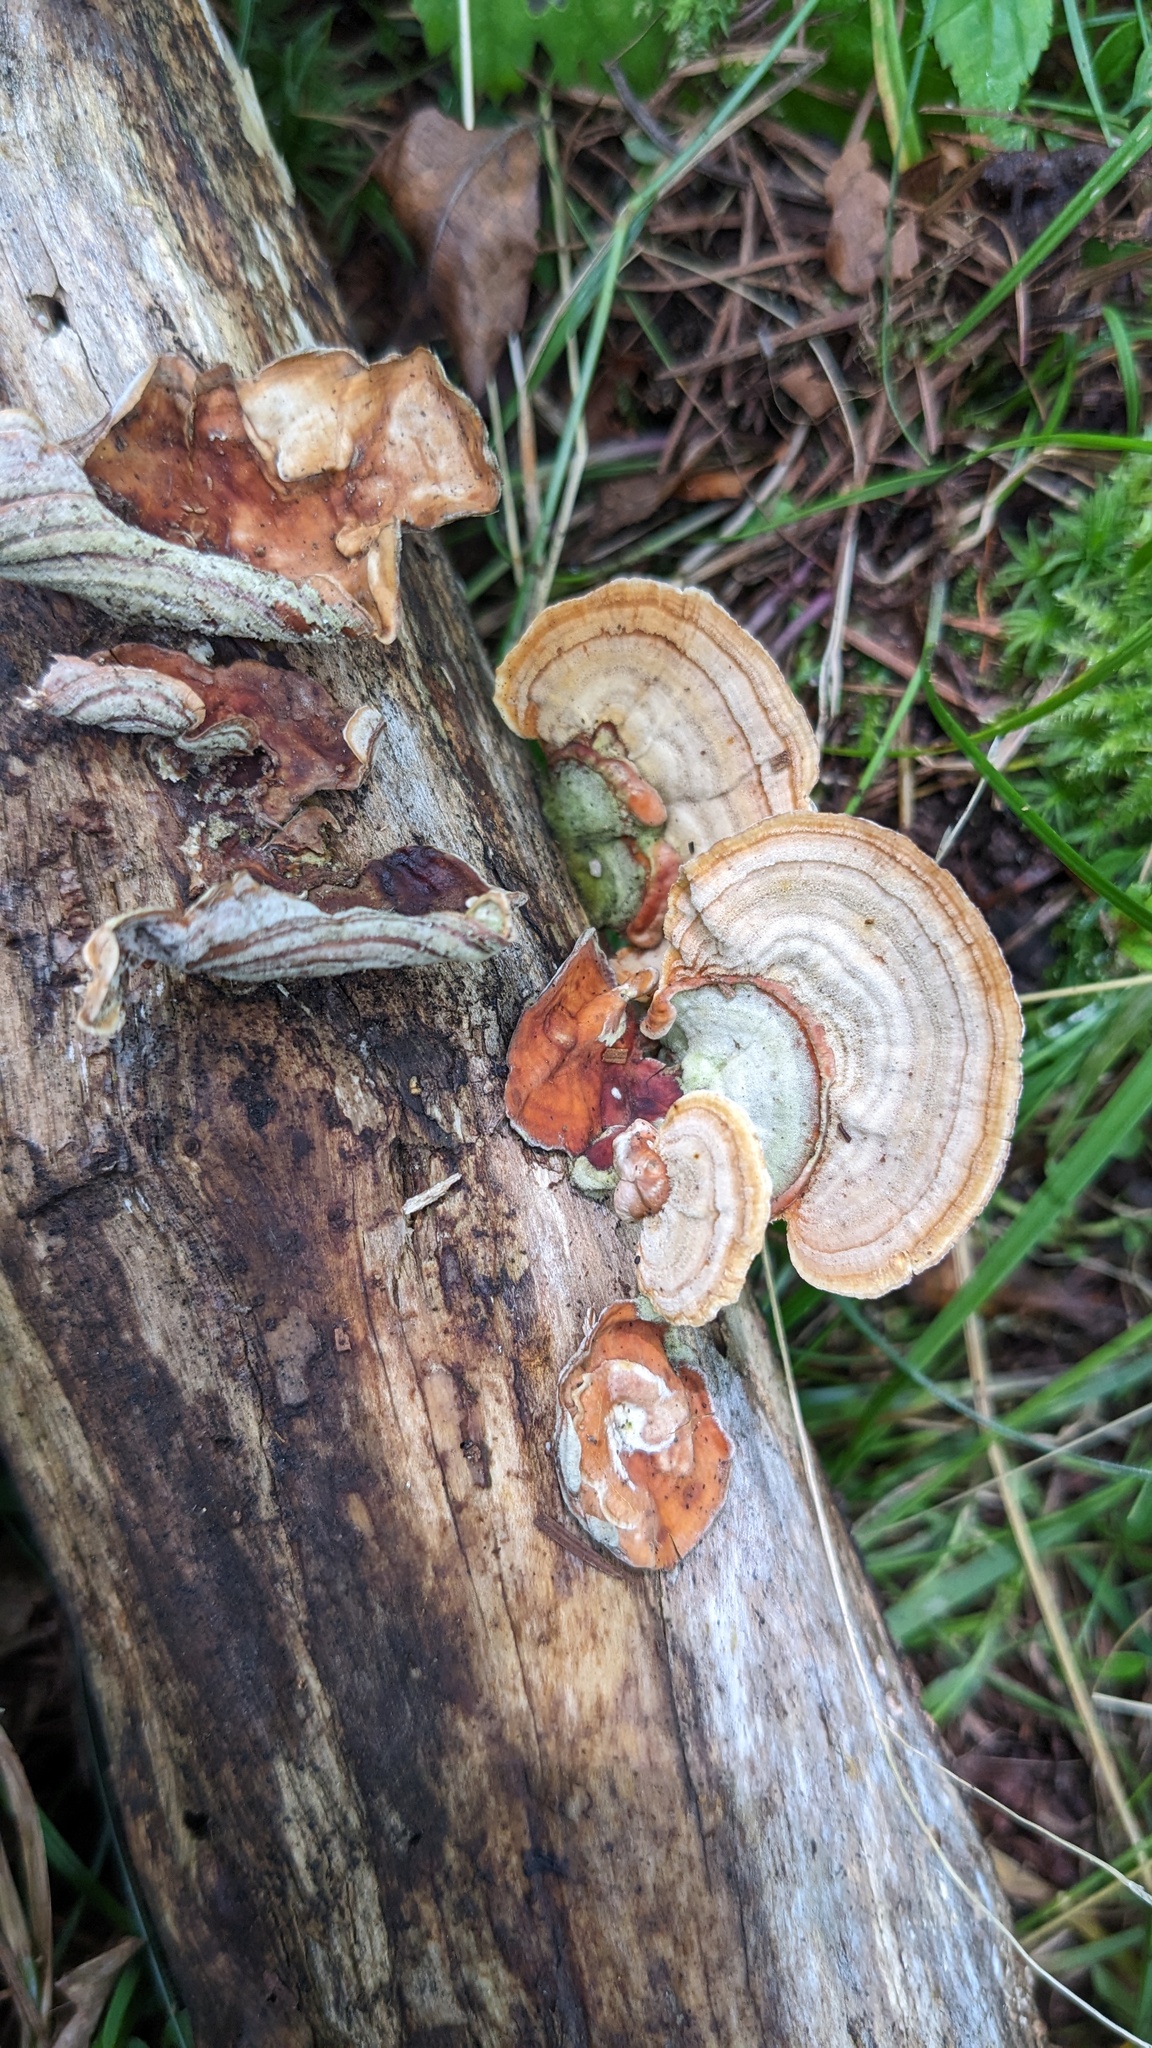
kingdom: Fungi
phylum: Basidiomycota
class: Agaricomycetes
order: Russulales
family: Stereaceae
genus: Stereum
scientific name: Stereum ostrea
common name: False turkeytail
